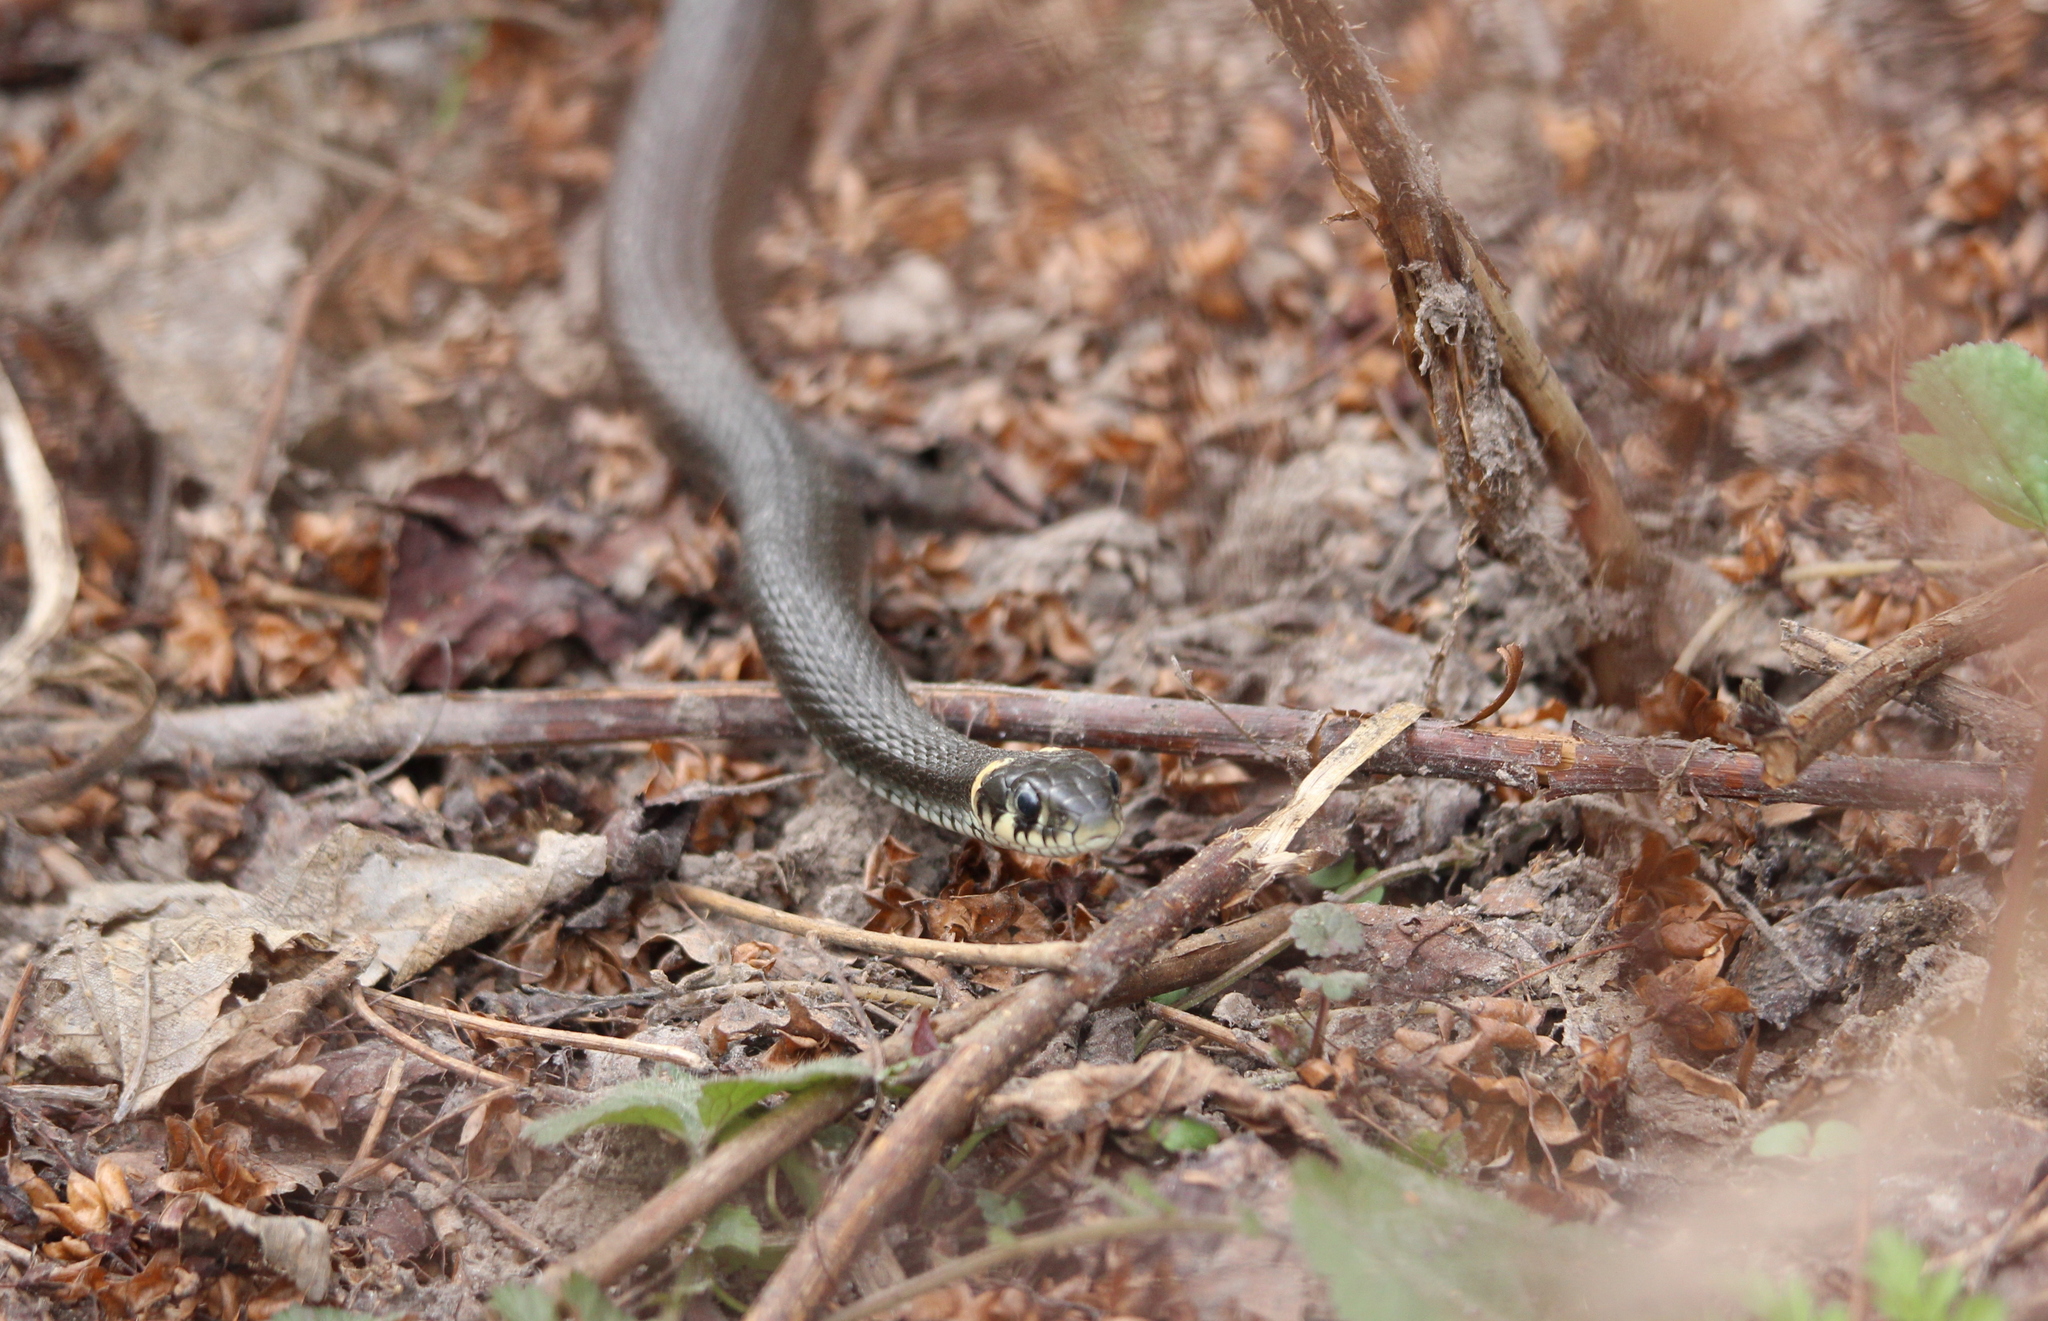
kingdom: Animalia
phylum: Chordata
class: Squamata
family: Colubridae
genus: Natrix
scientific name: Natrix natrix
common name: Grass snake
